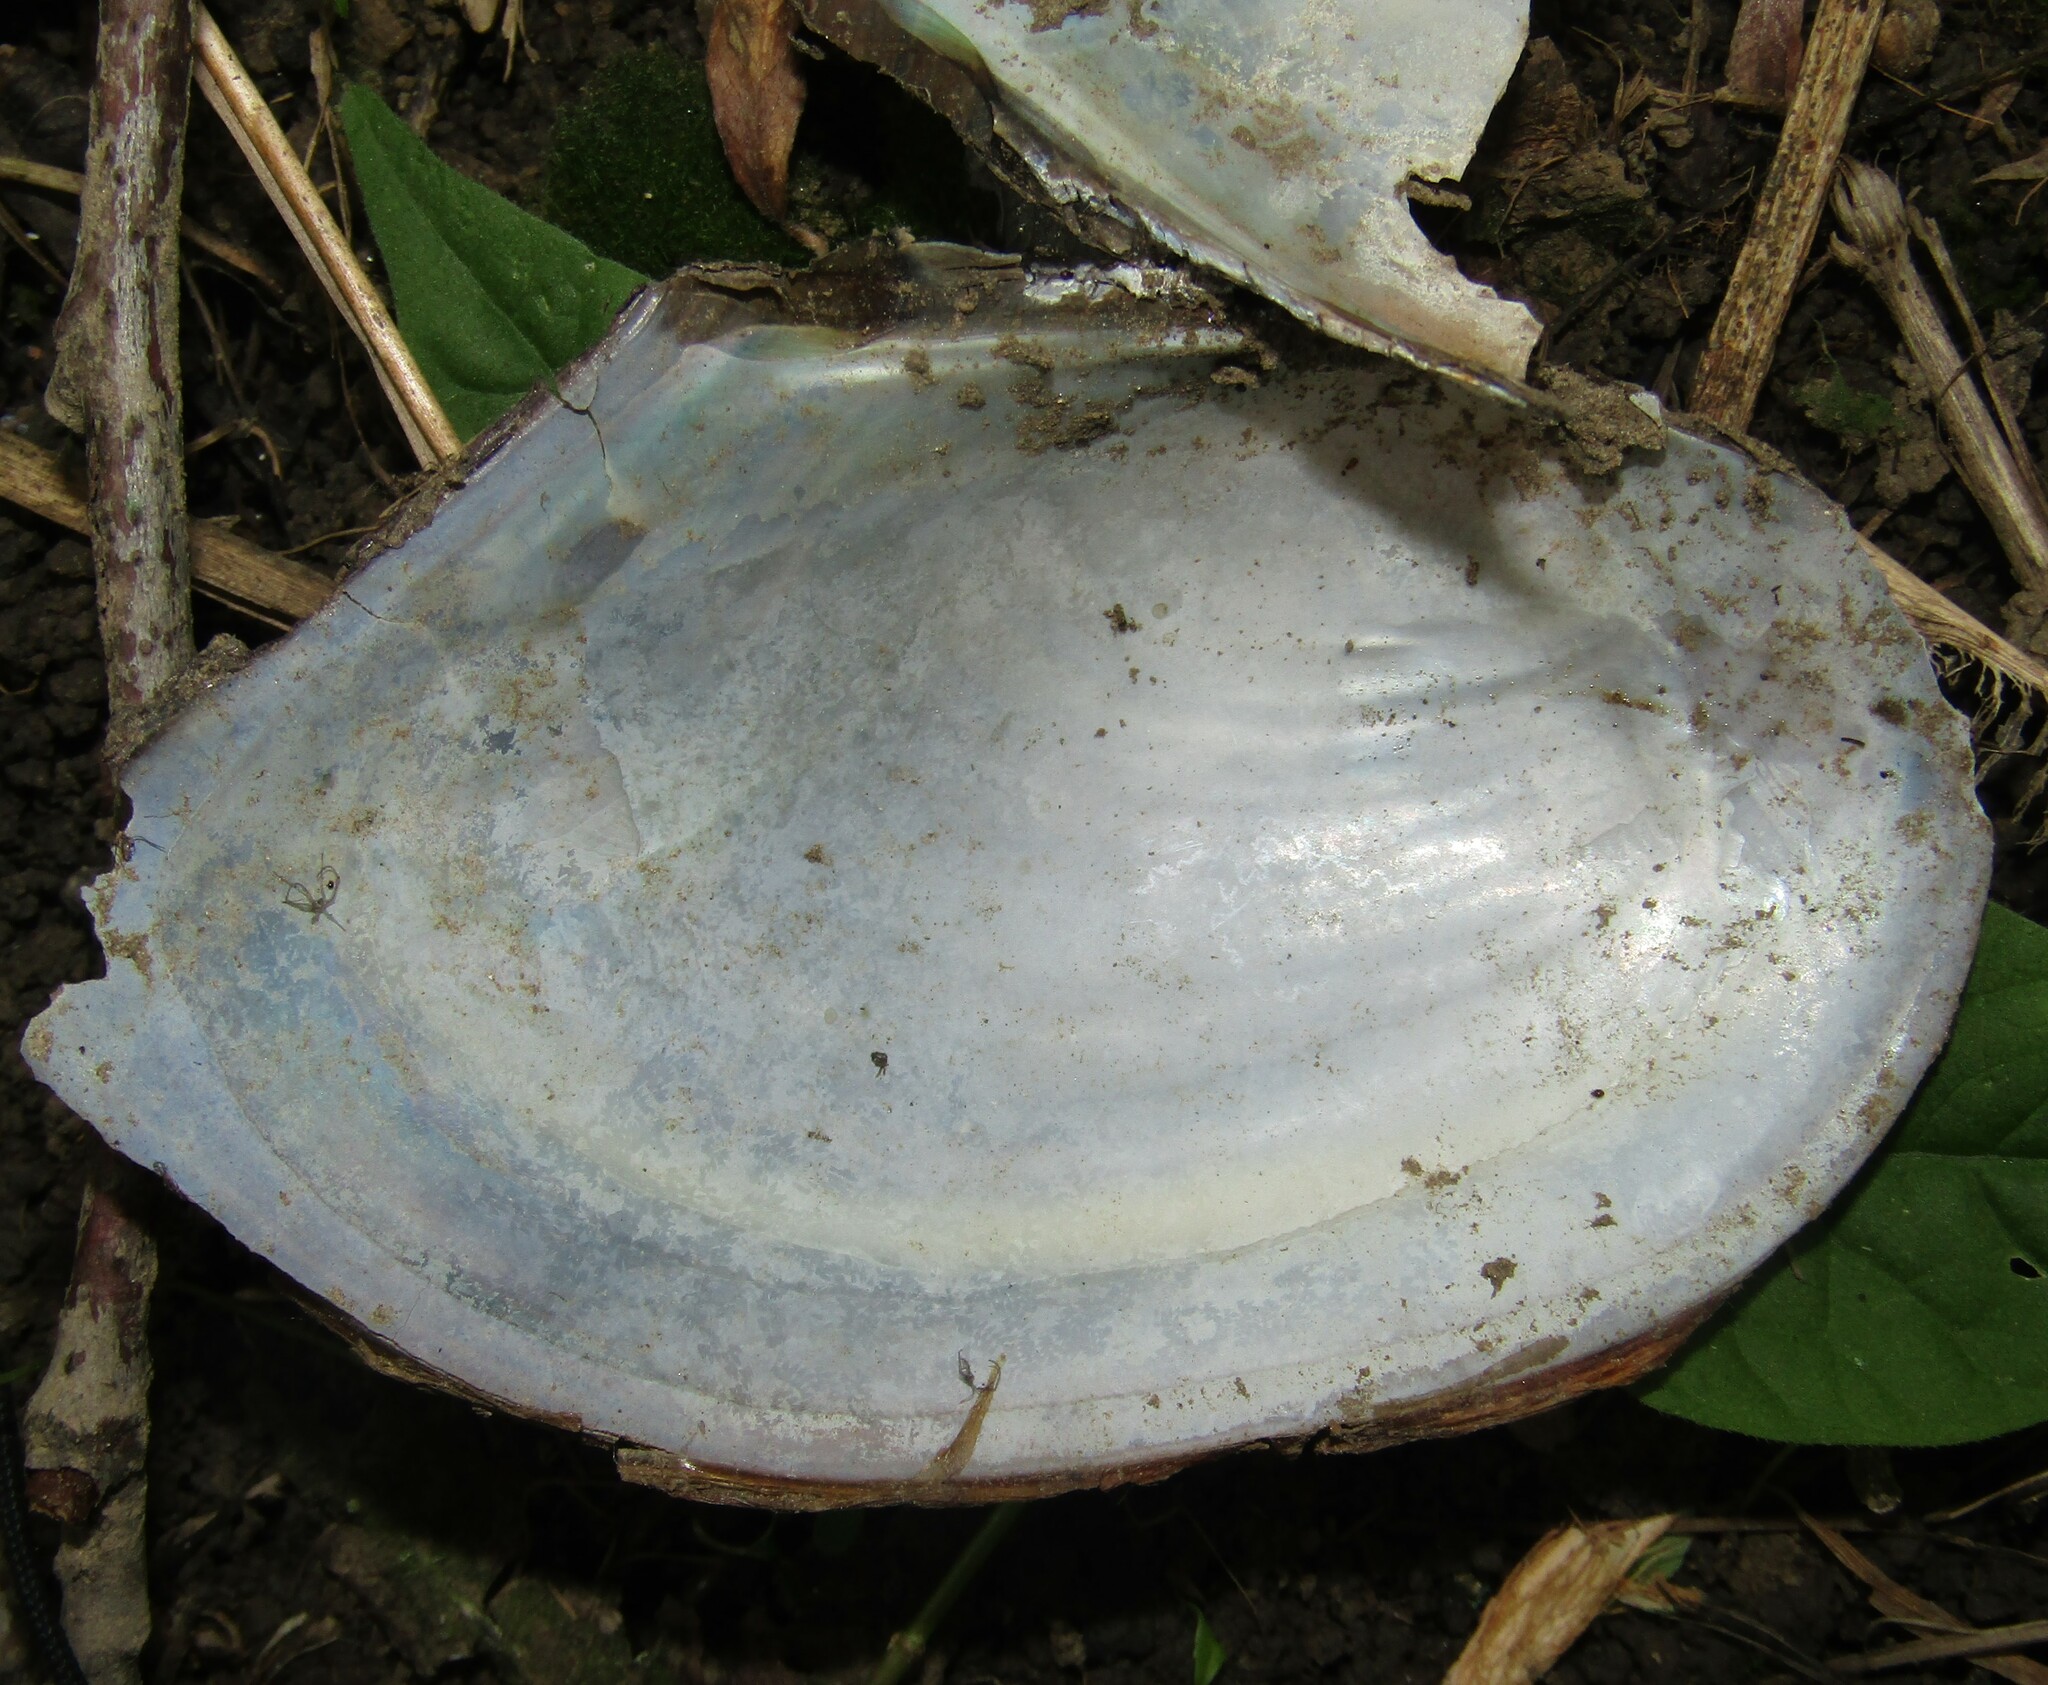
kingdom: Animalia
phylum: Mollusca
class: Bivalvia
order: Unionida
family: Unionidae
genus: Anodonta
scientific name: Anodonta anatina
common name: Duck mussel
